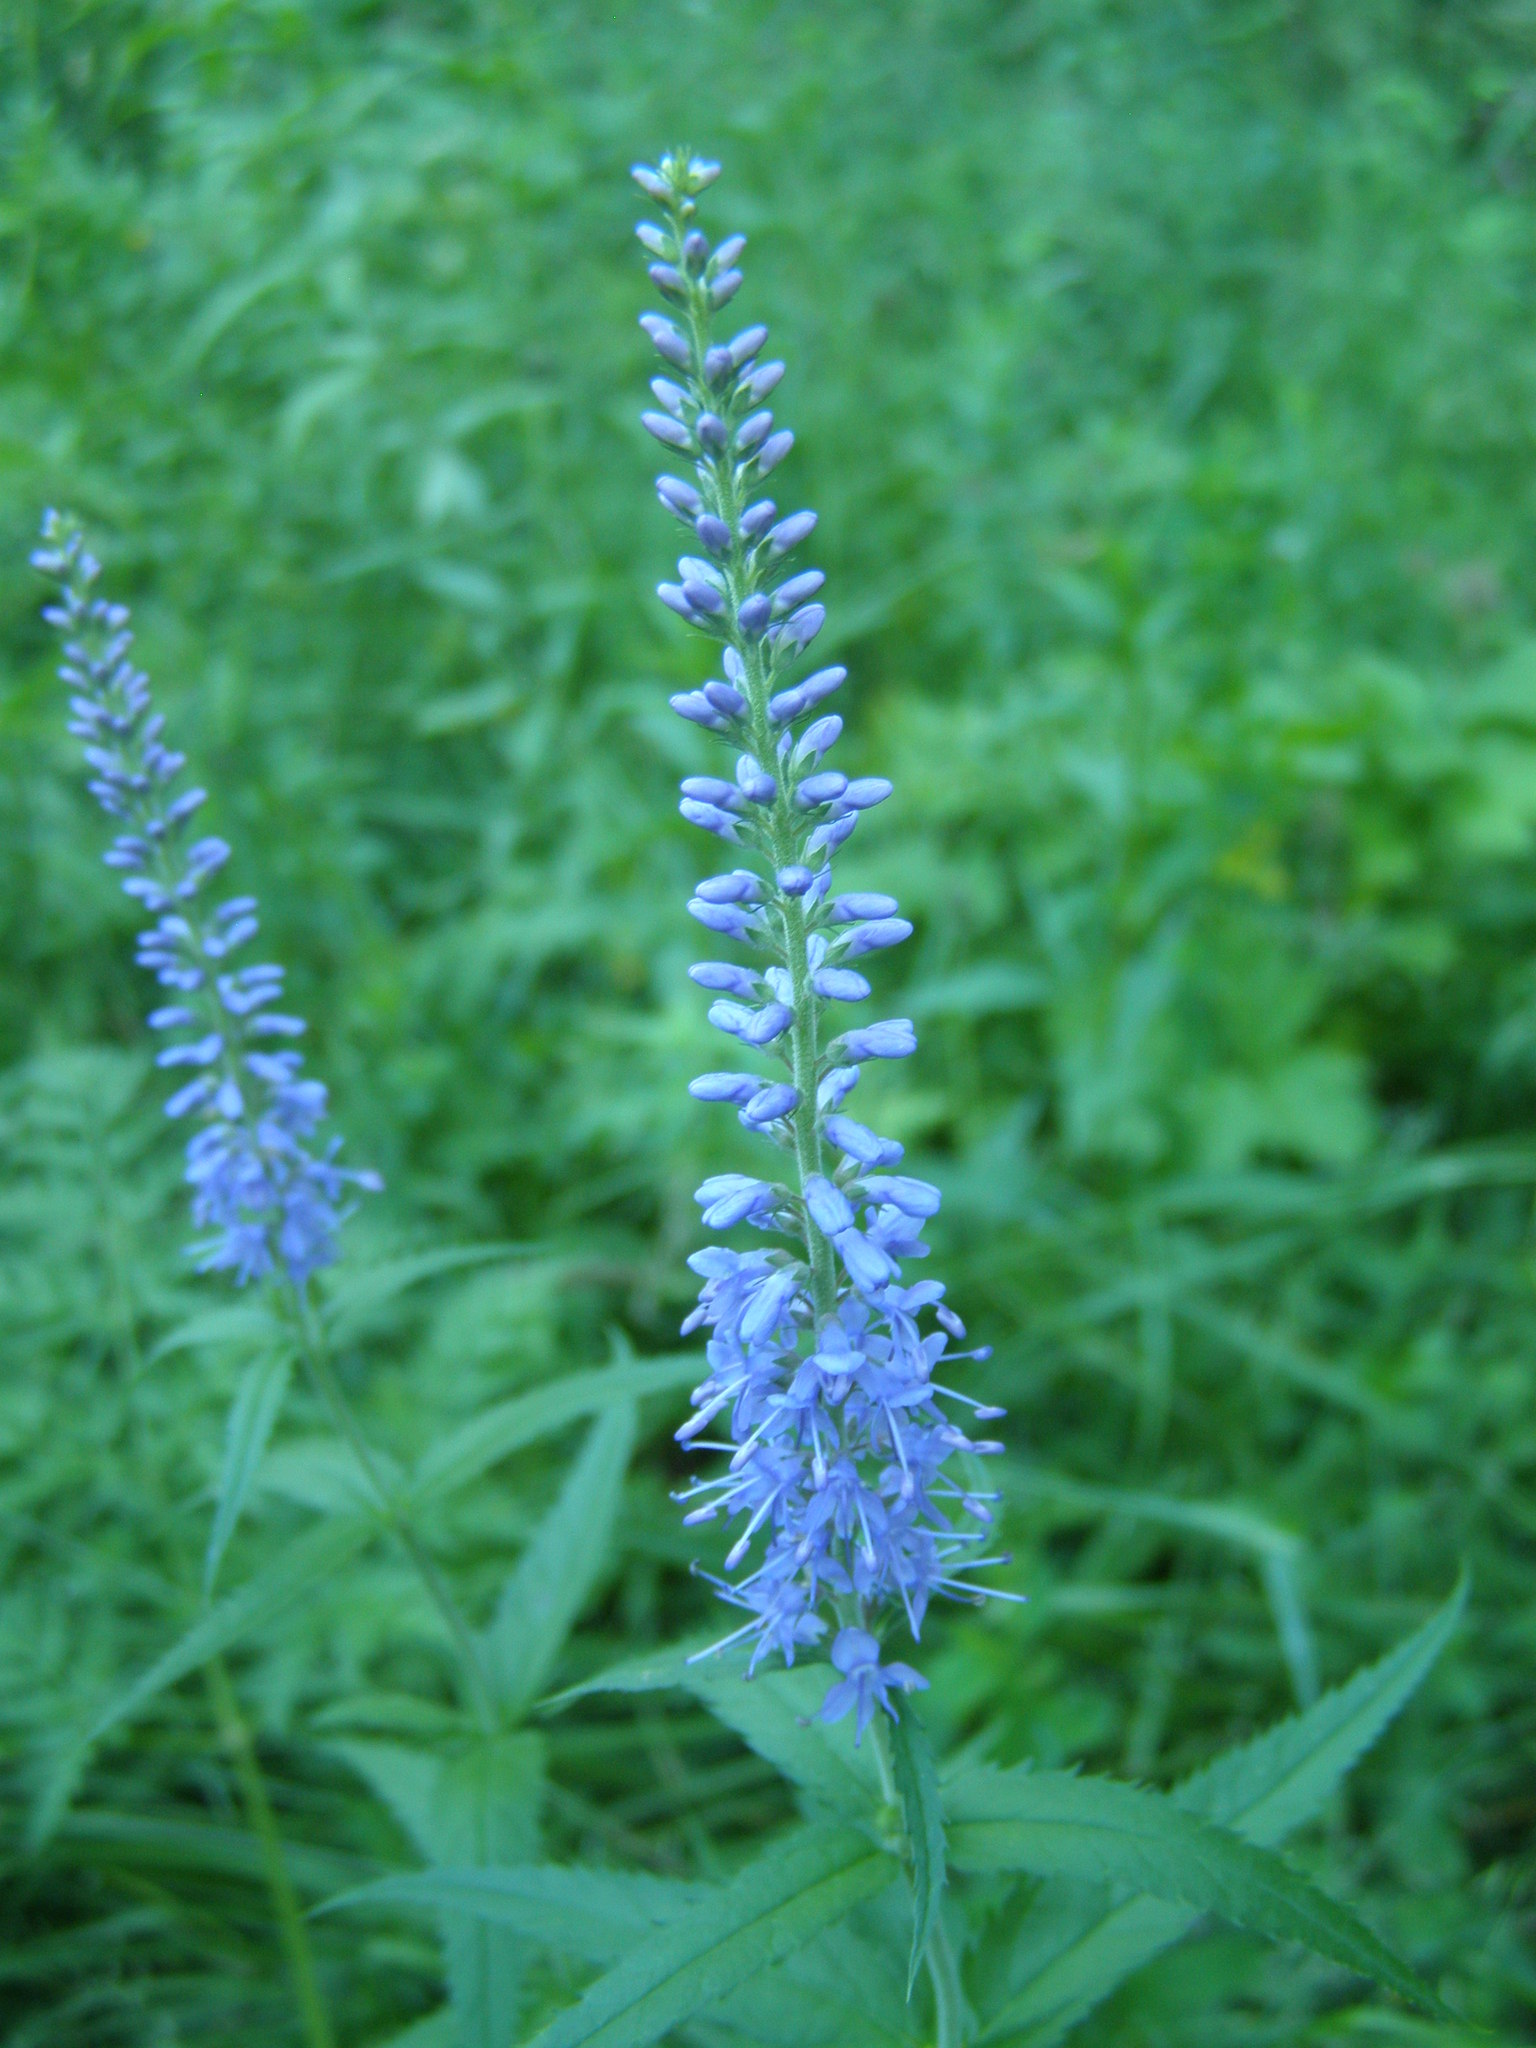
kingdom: Plantae
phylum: Tracheophyta
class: Magnoliopsida
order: Lamiales
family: Plantaginaceae
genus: Veronica
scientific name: Veronica longifolia
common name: Garden speedwell
